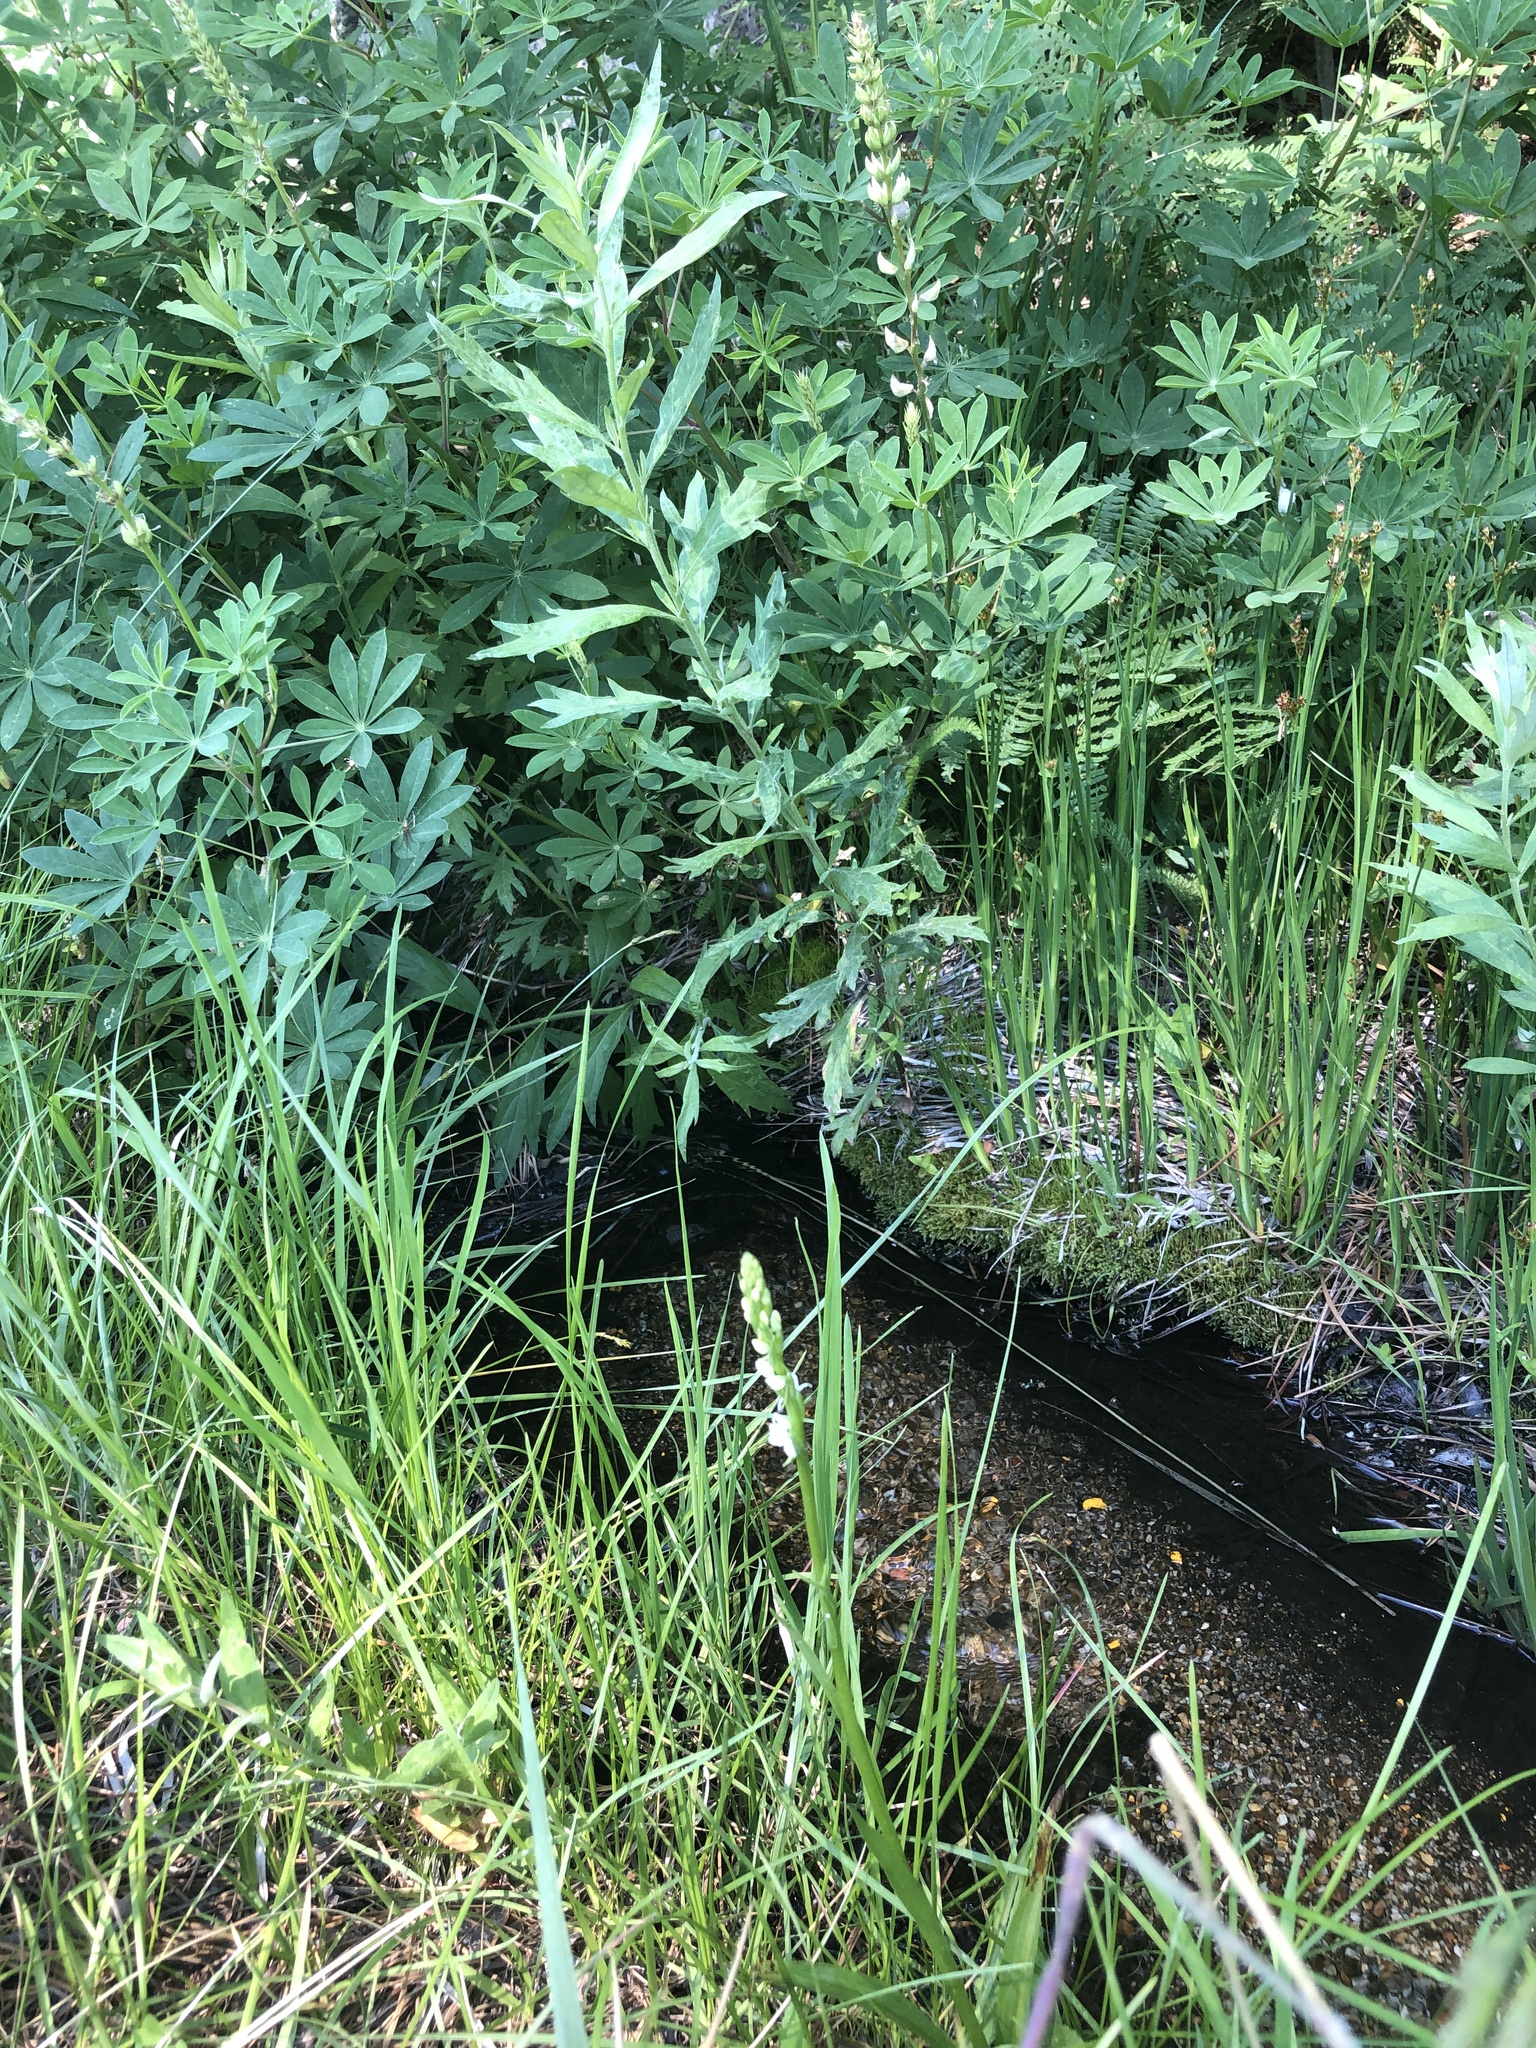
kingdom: Plantae
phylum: Tracheophyta
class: Liliopsida
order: Asparagales
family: Orchidaceae
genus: Platanthera
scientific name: Platanthera dilatata
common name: Bog candles
